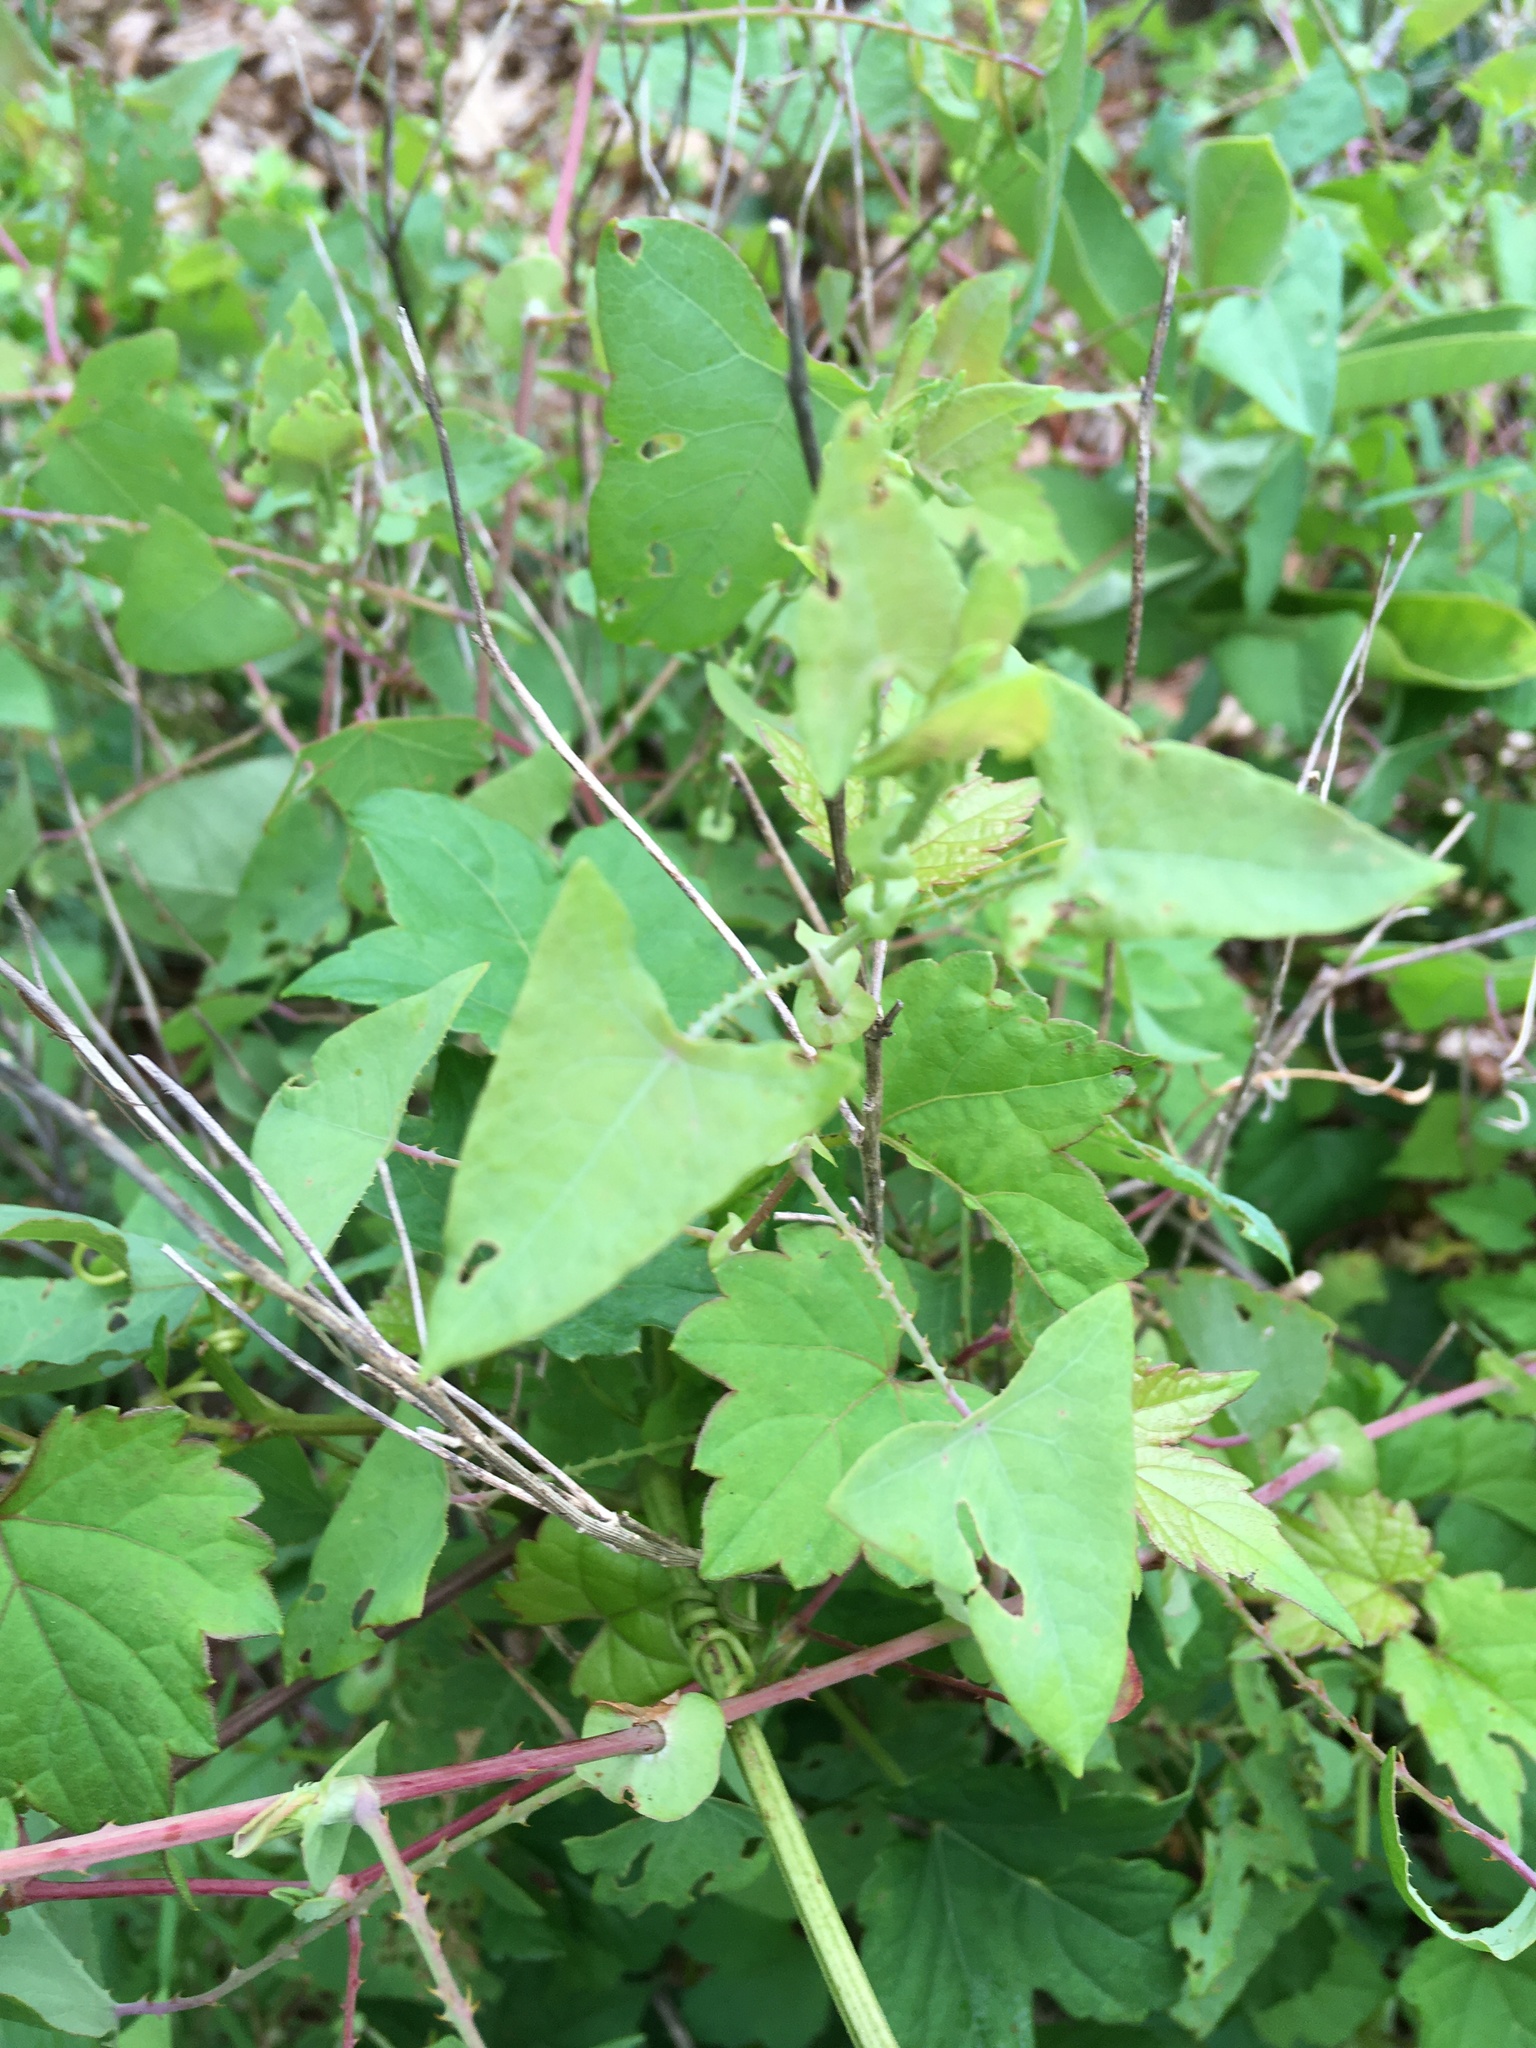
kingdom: Plantae
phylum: Tracheophyta
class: Magnoliopsida
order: Caryophyllales
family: Polygonaceae
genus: Persicaria
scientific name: Persicaria perfoliata
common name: Asiatic tearthumb
